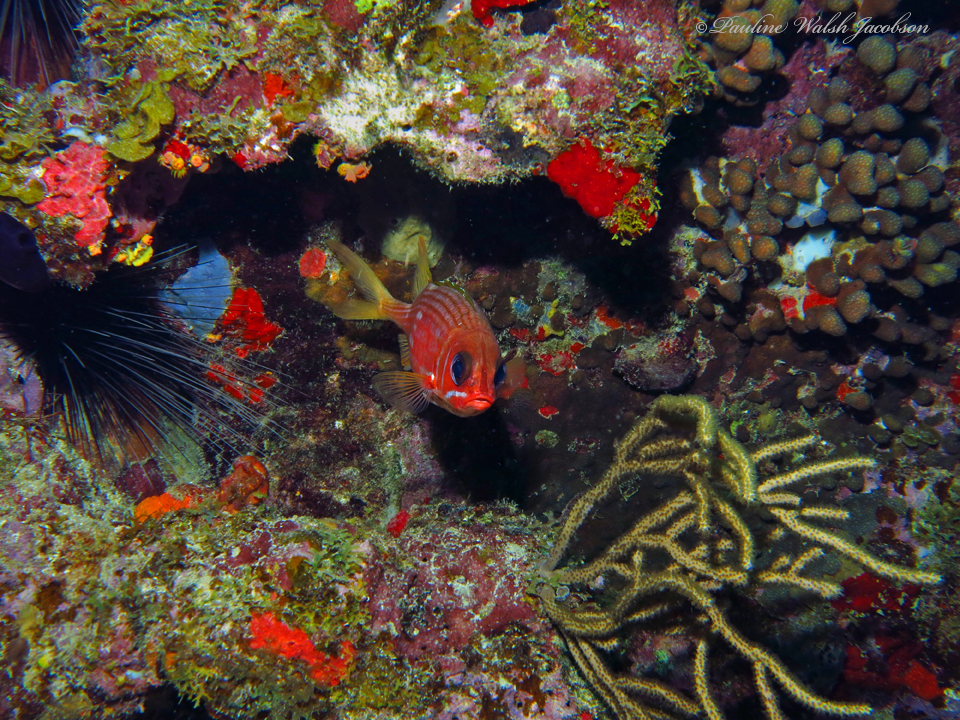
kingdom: Animalia
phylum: Chordata
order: Beryciformes
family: Holocentridae
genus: Holocentrus
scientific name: Holocentrus rufus
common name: Longspine squirrelfish
